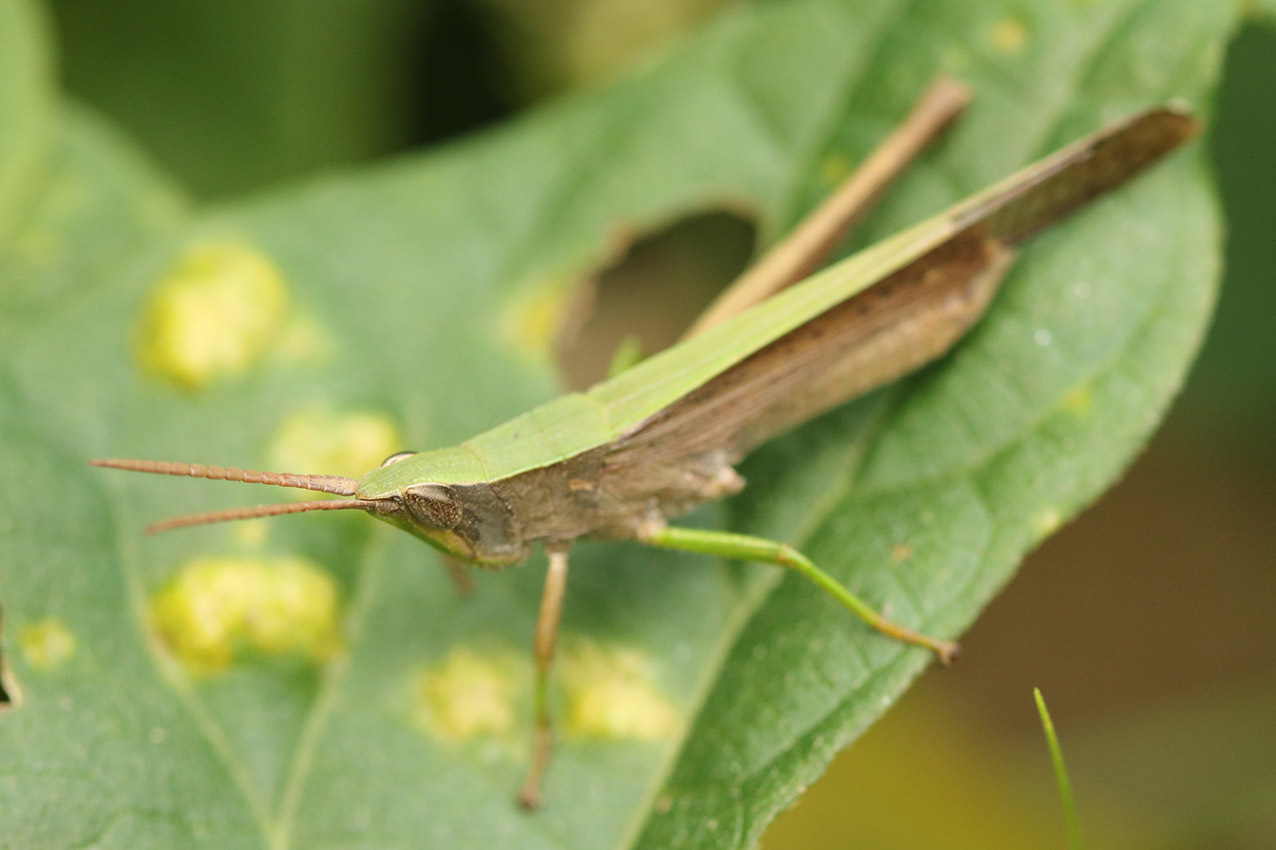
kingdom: Animalia
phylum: Arthropoda
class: Insecta
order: Orthoptera
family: Acrididae
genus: Metaleptea
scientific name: Metaleptea adspersa
